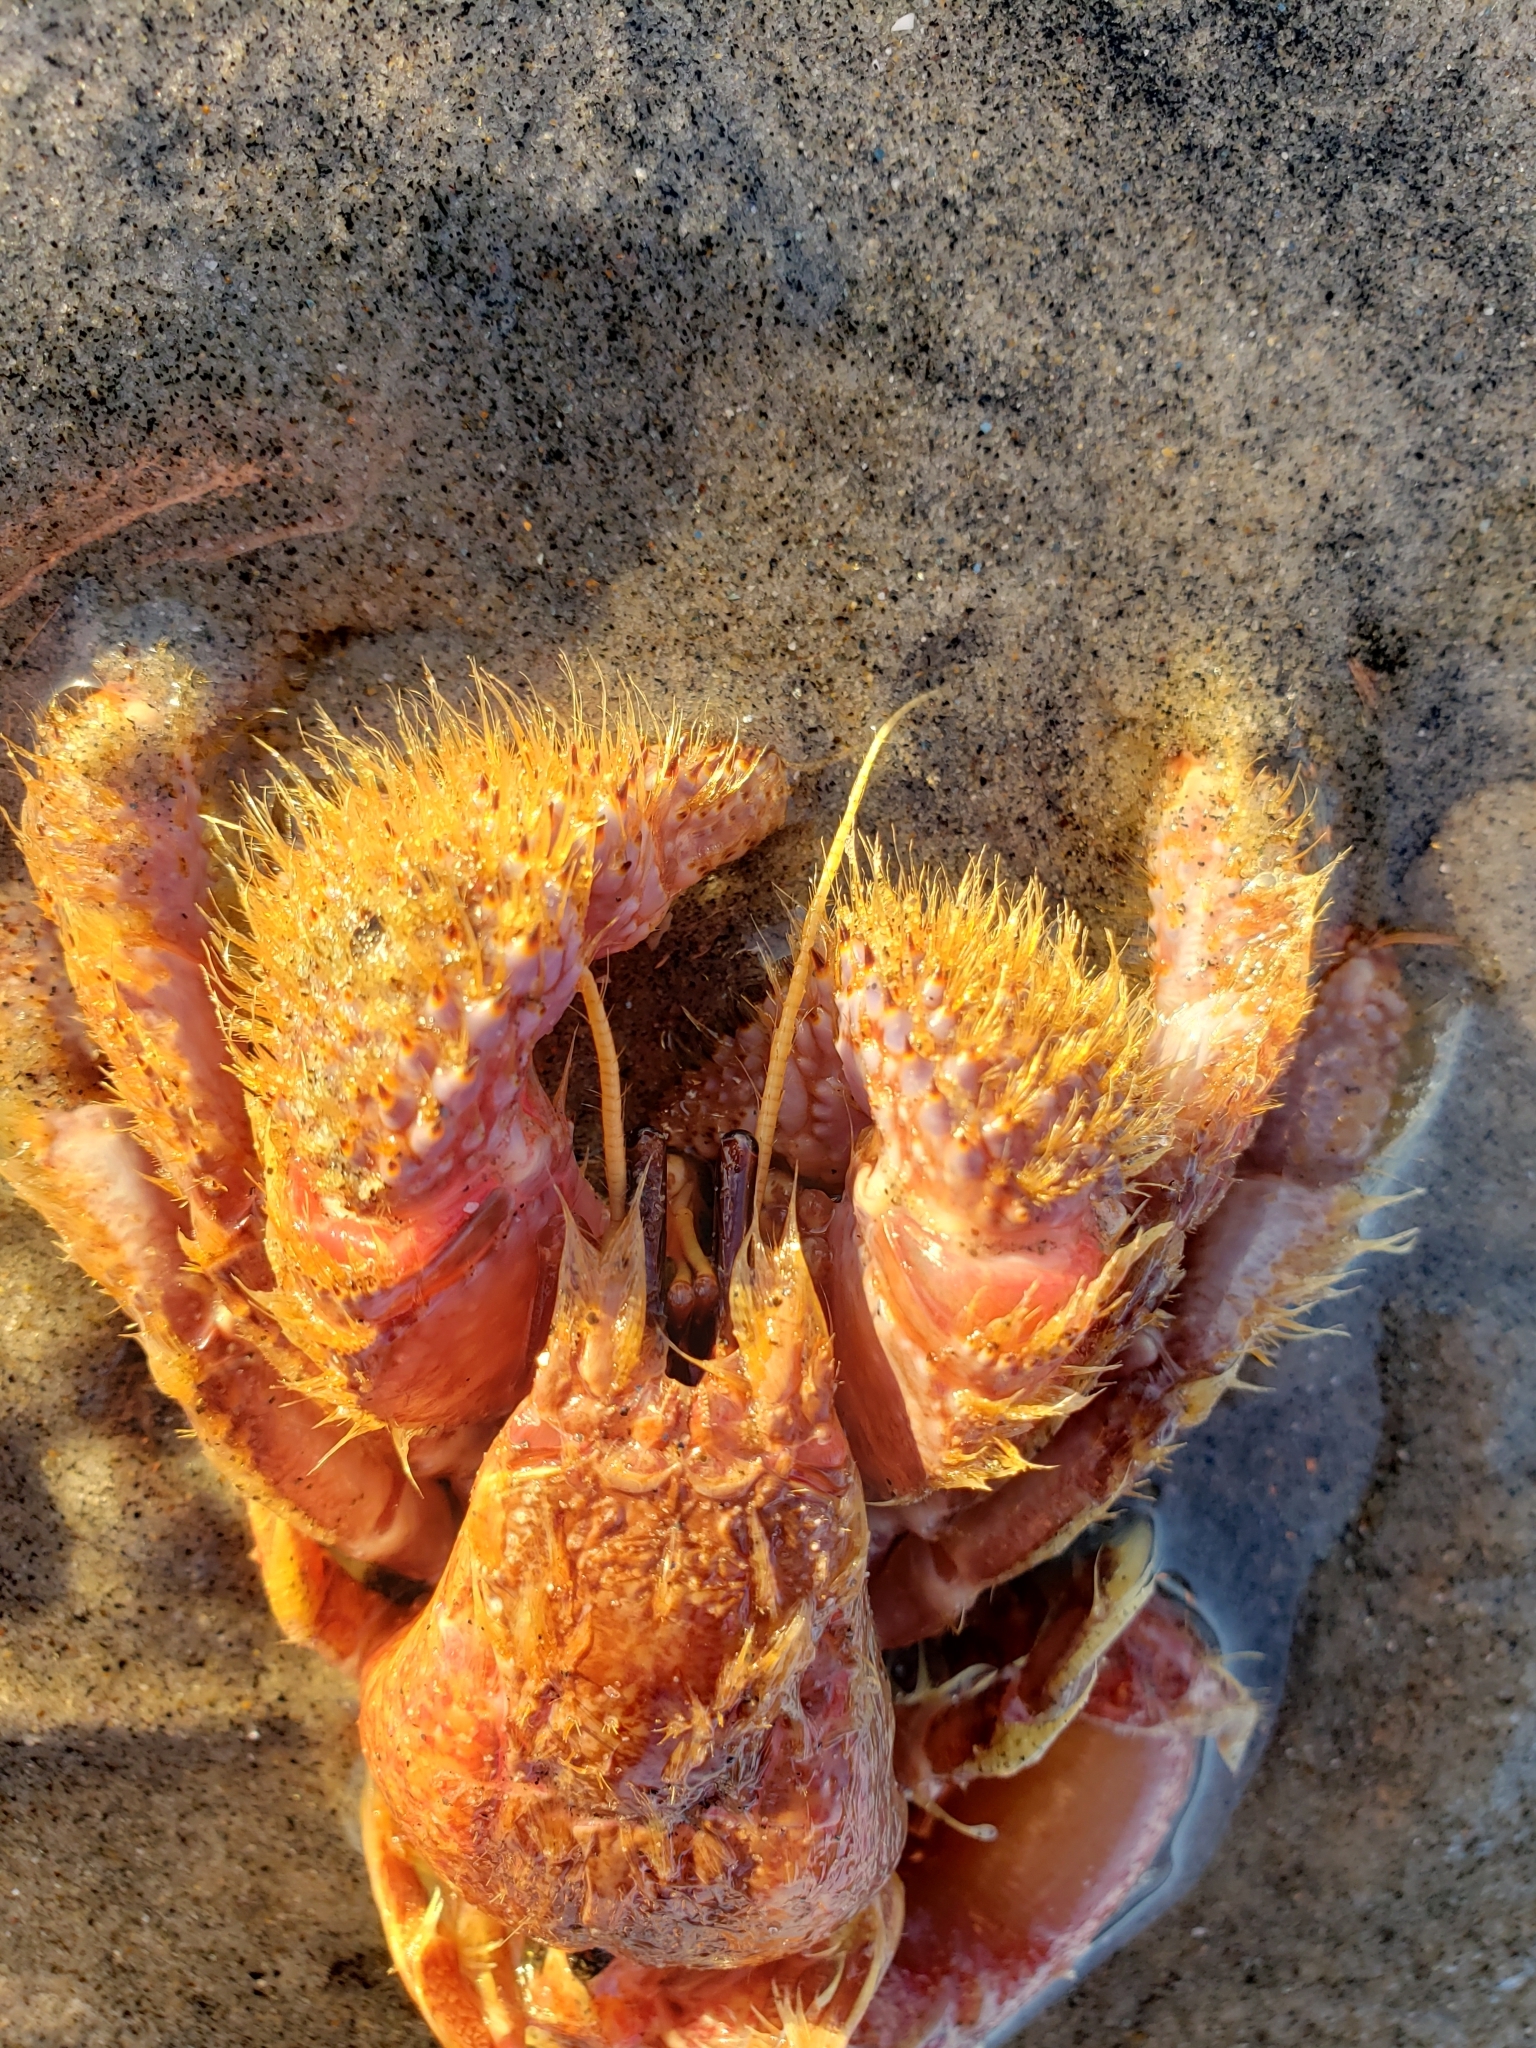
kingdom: Animalia
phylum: Arthropoda
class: Malacostraca
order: Decapoda
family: Diogenidae
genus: Paguristes
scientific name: Paguristes ulreyi
